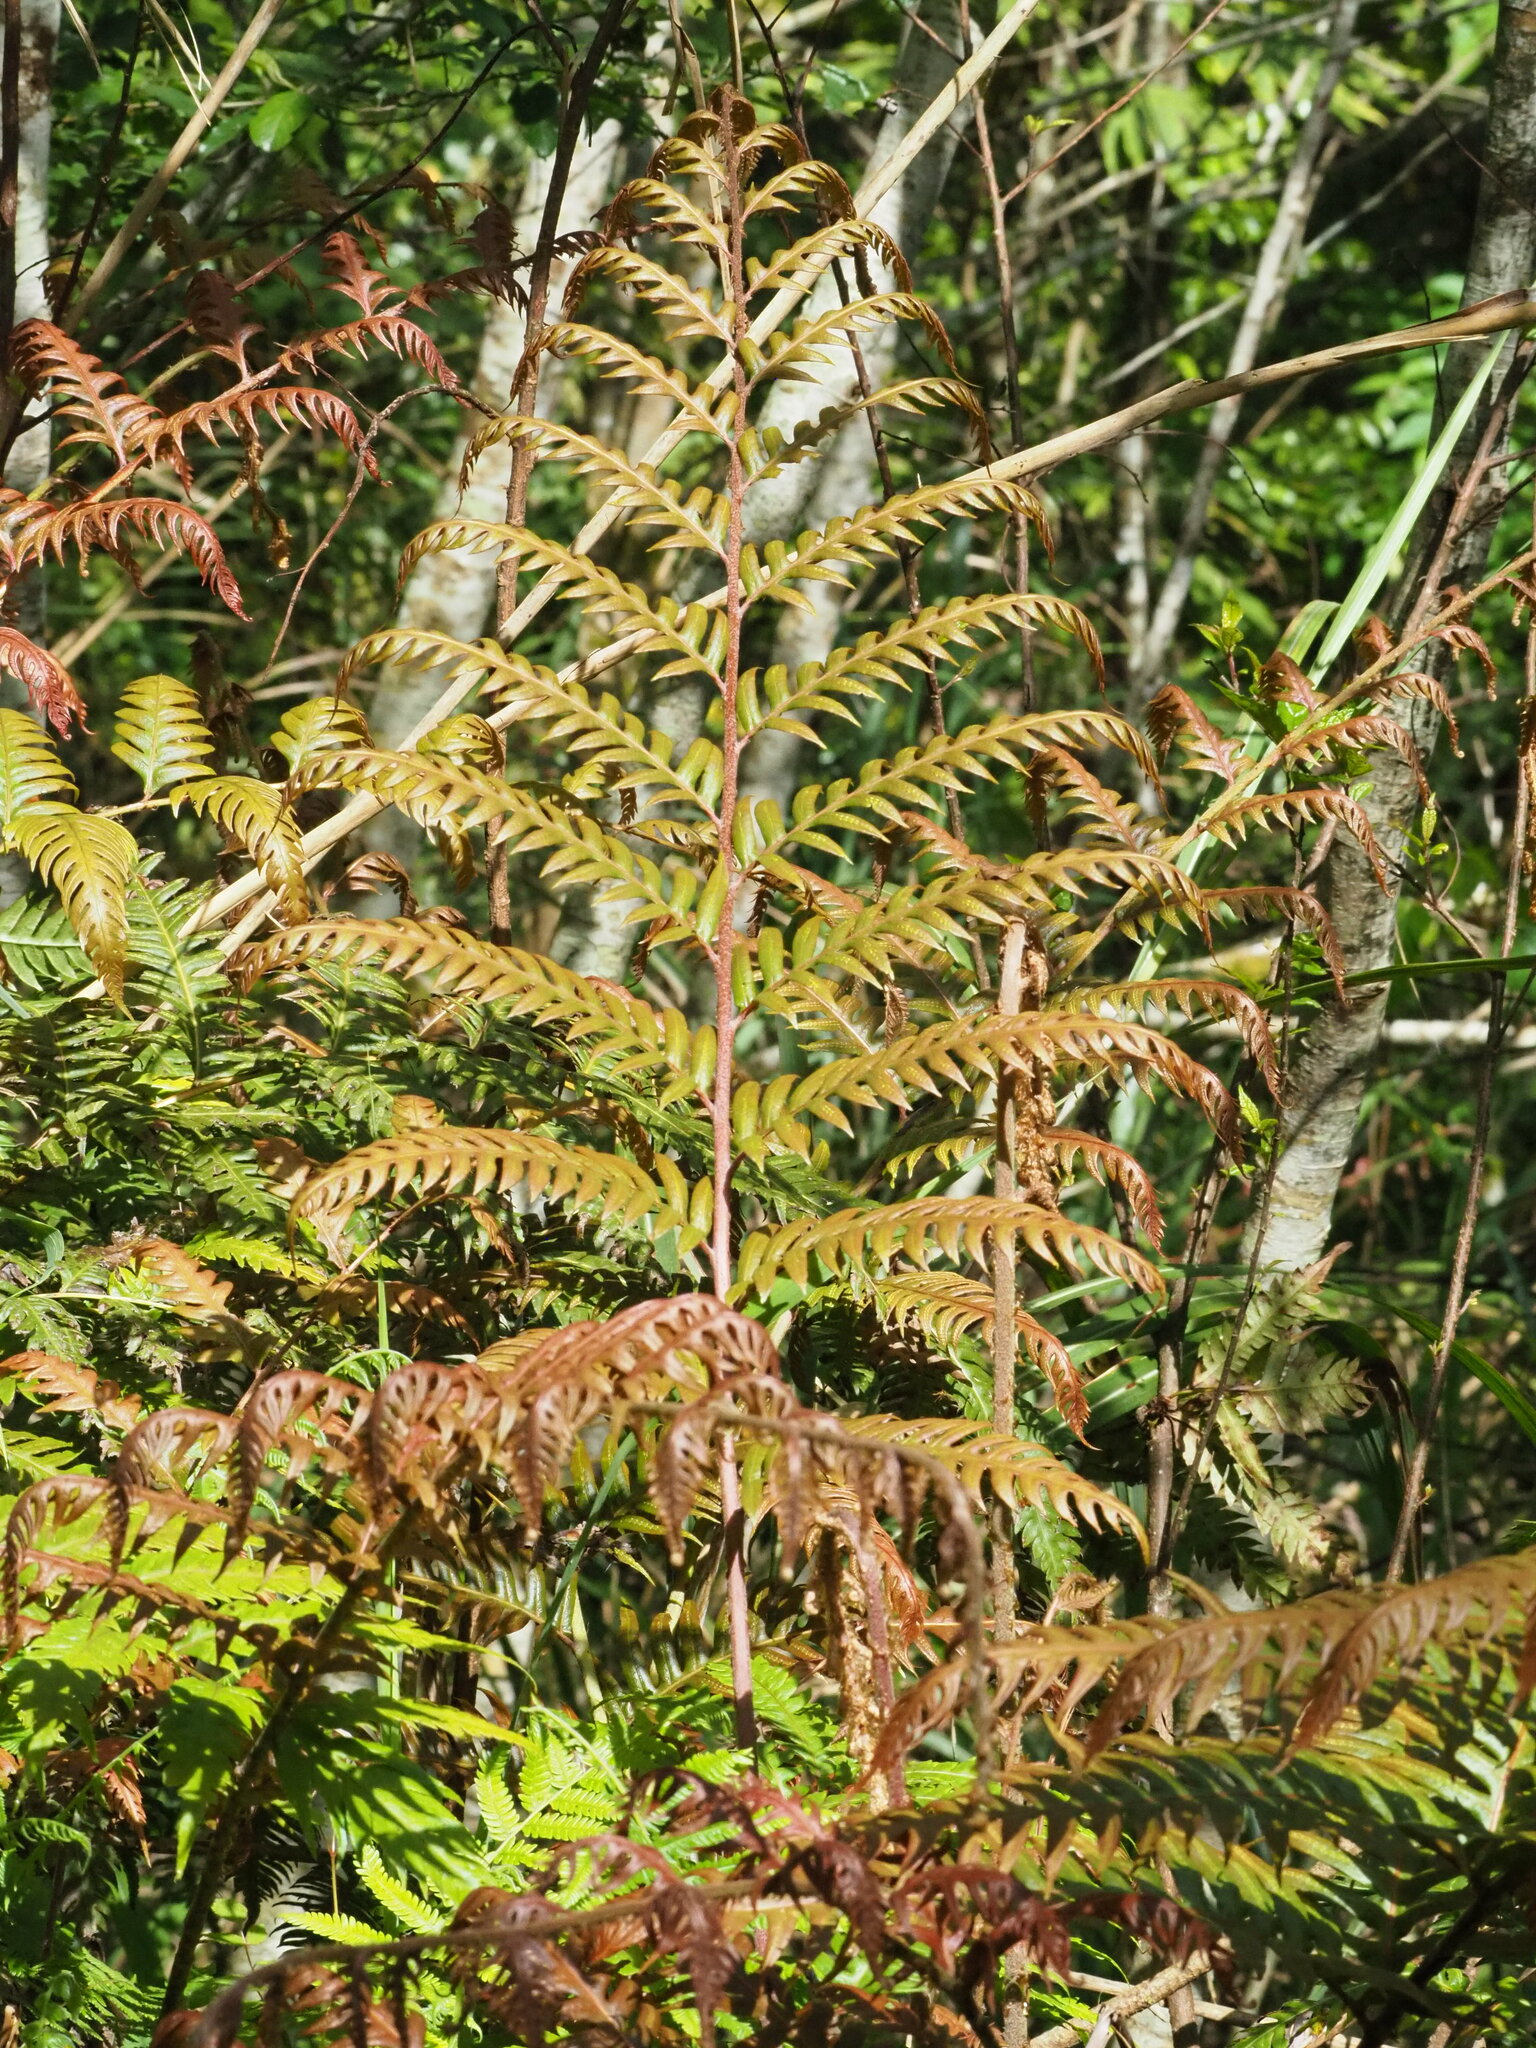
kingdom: Plantae
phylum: Tracheophyta
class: Polypodiopsida
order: Polypodiales
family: Blechnaceae
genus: Woodwardia
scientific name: Woodwardia unigemmata
